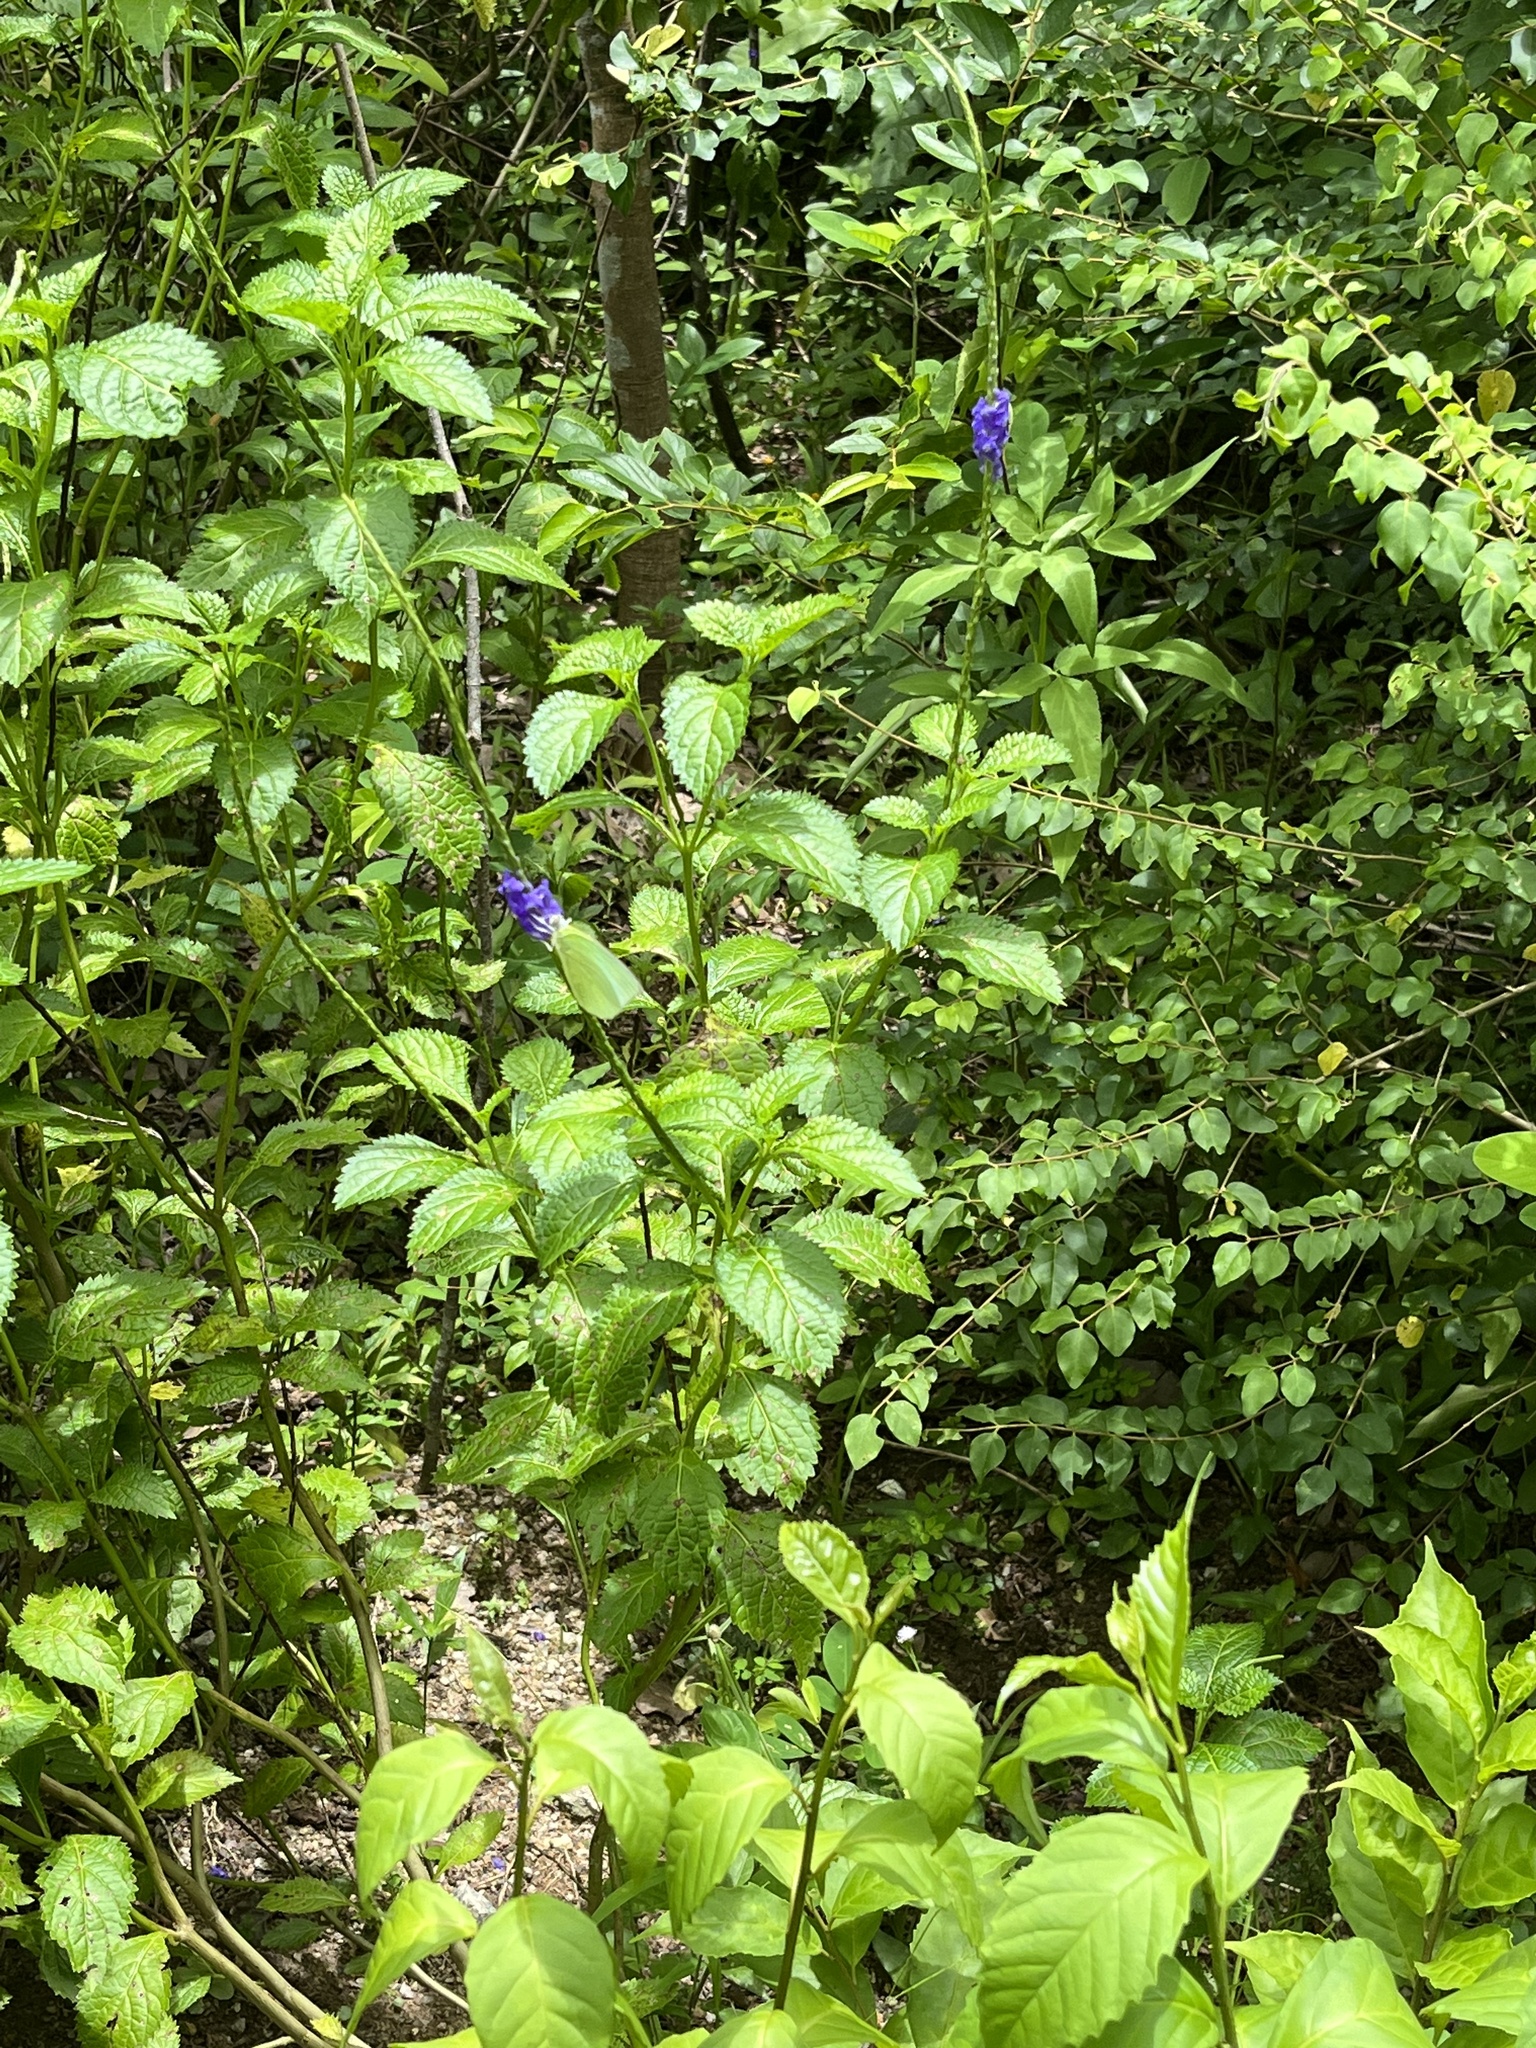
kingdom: Animalia
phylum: Arthropoda
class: Insecta
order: Lepidoptera
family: Pieridae
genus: Catopsilia
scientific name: Catopsilia pomona
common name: Common emigrant
